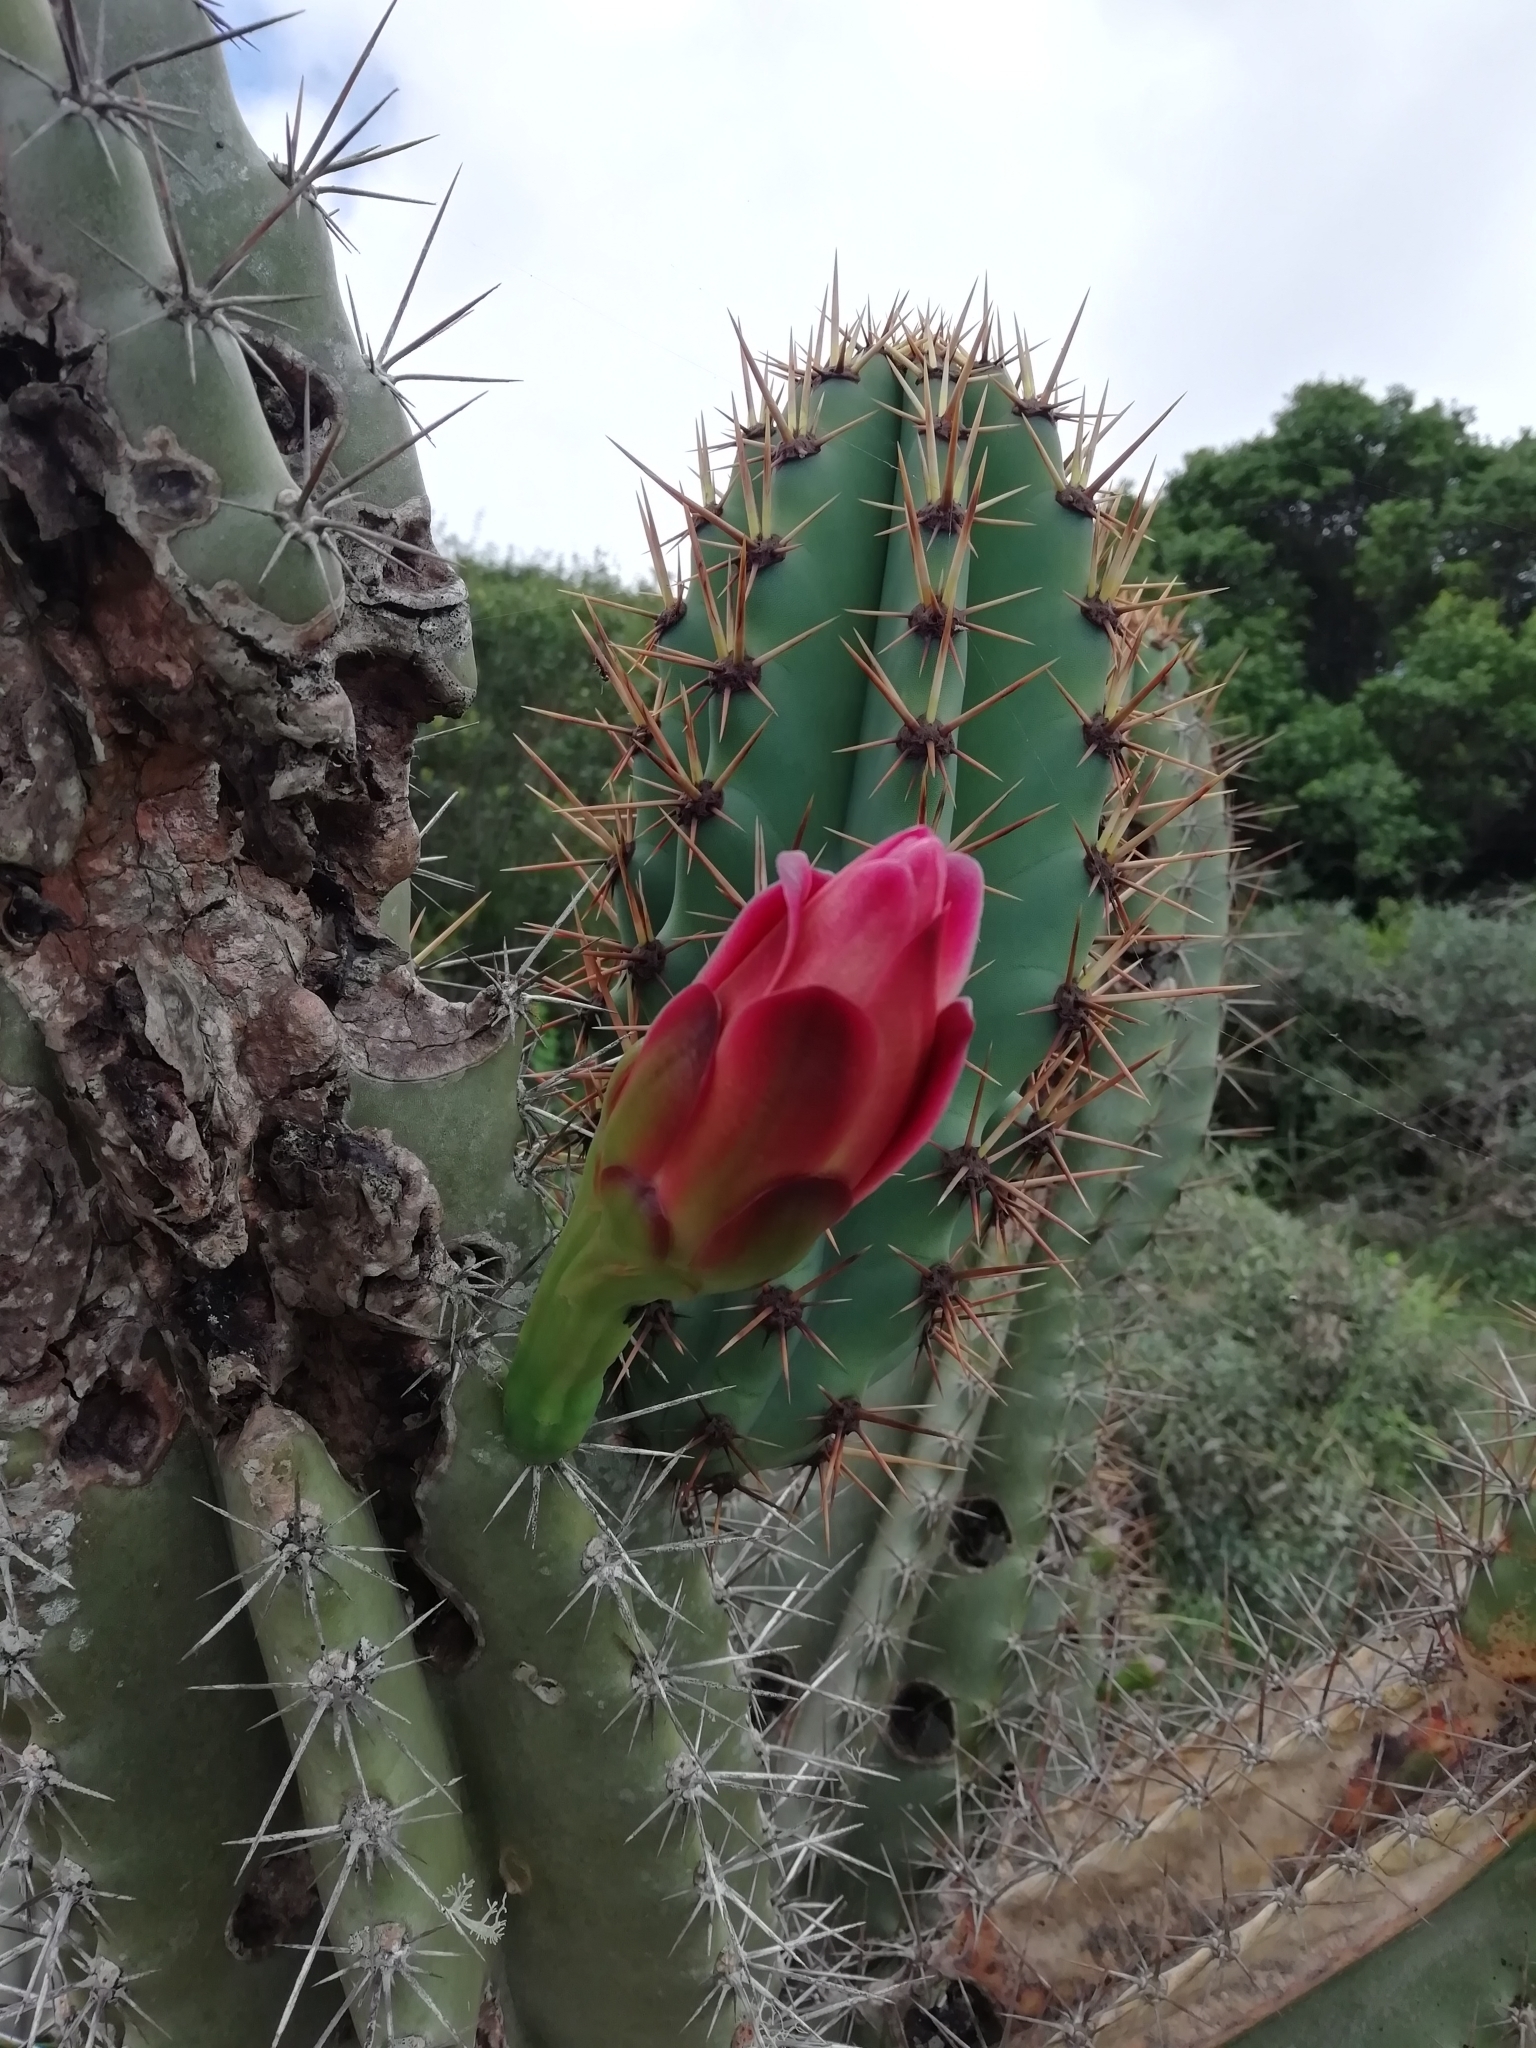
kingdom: Plantae
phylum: Tracheophyta
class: Magnoliopsida
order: Caryophyllales
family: Cactaceae
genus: Cereus
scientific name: Cereus hildmannianus
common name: Hedge cactus
